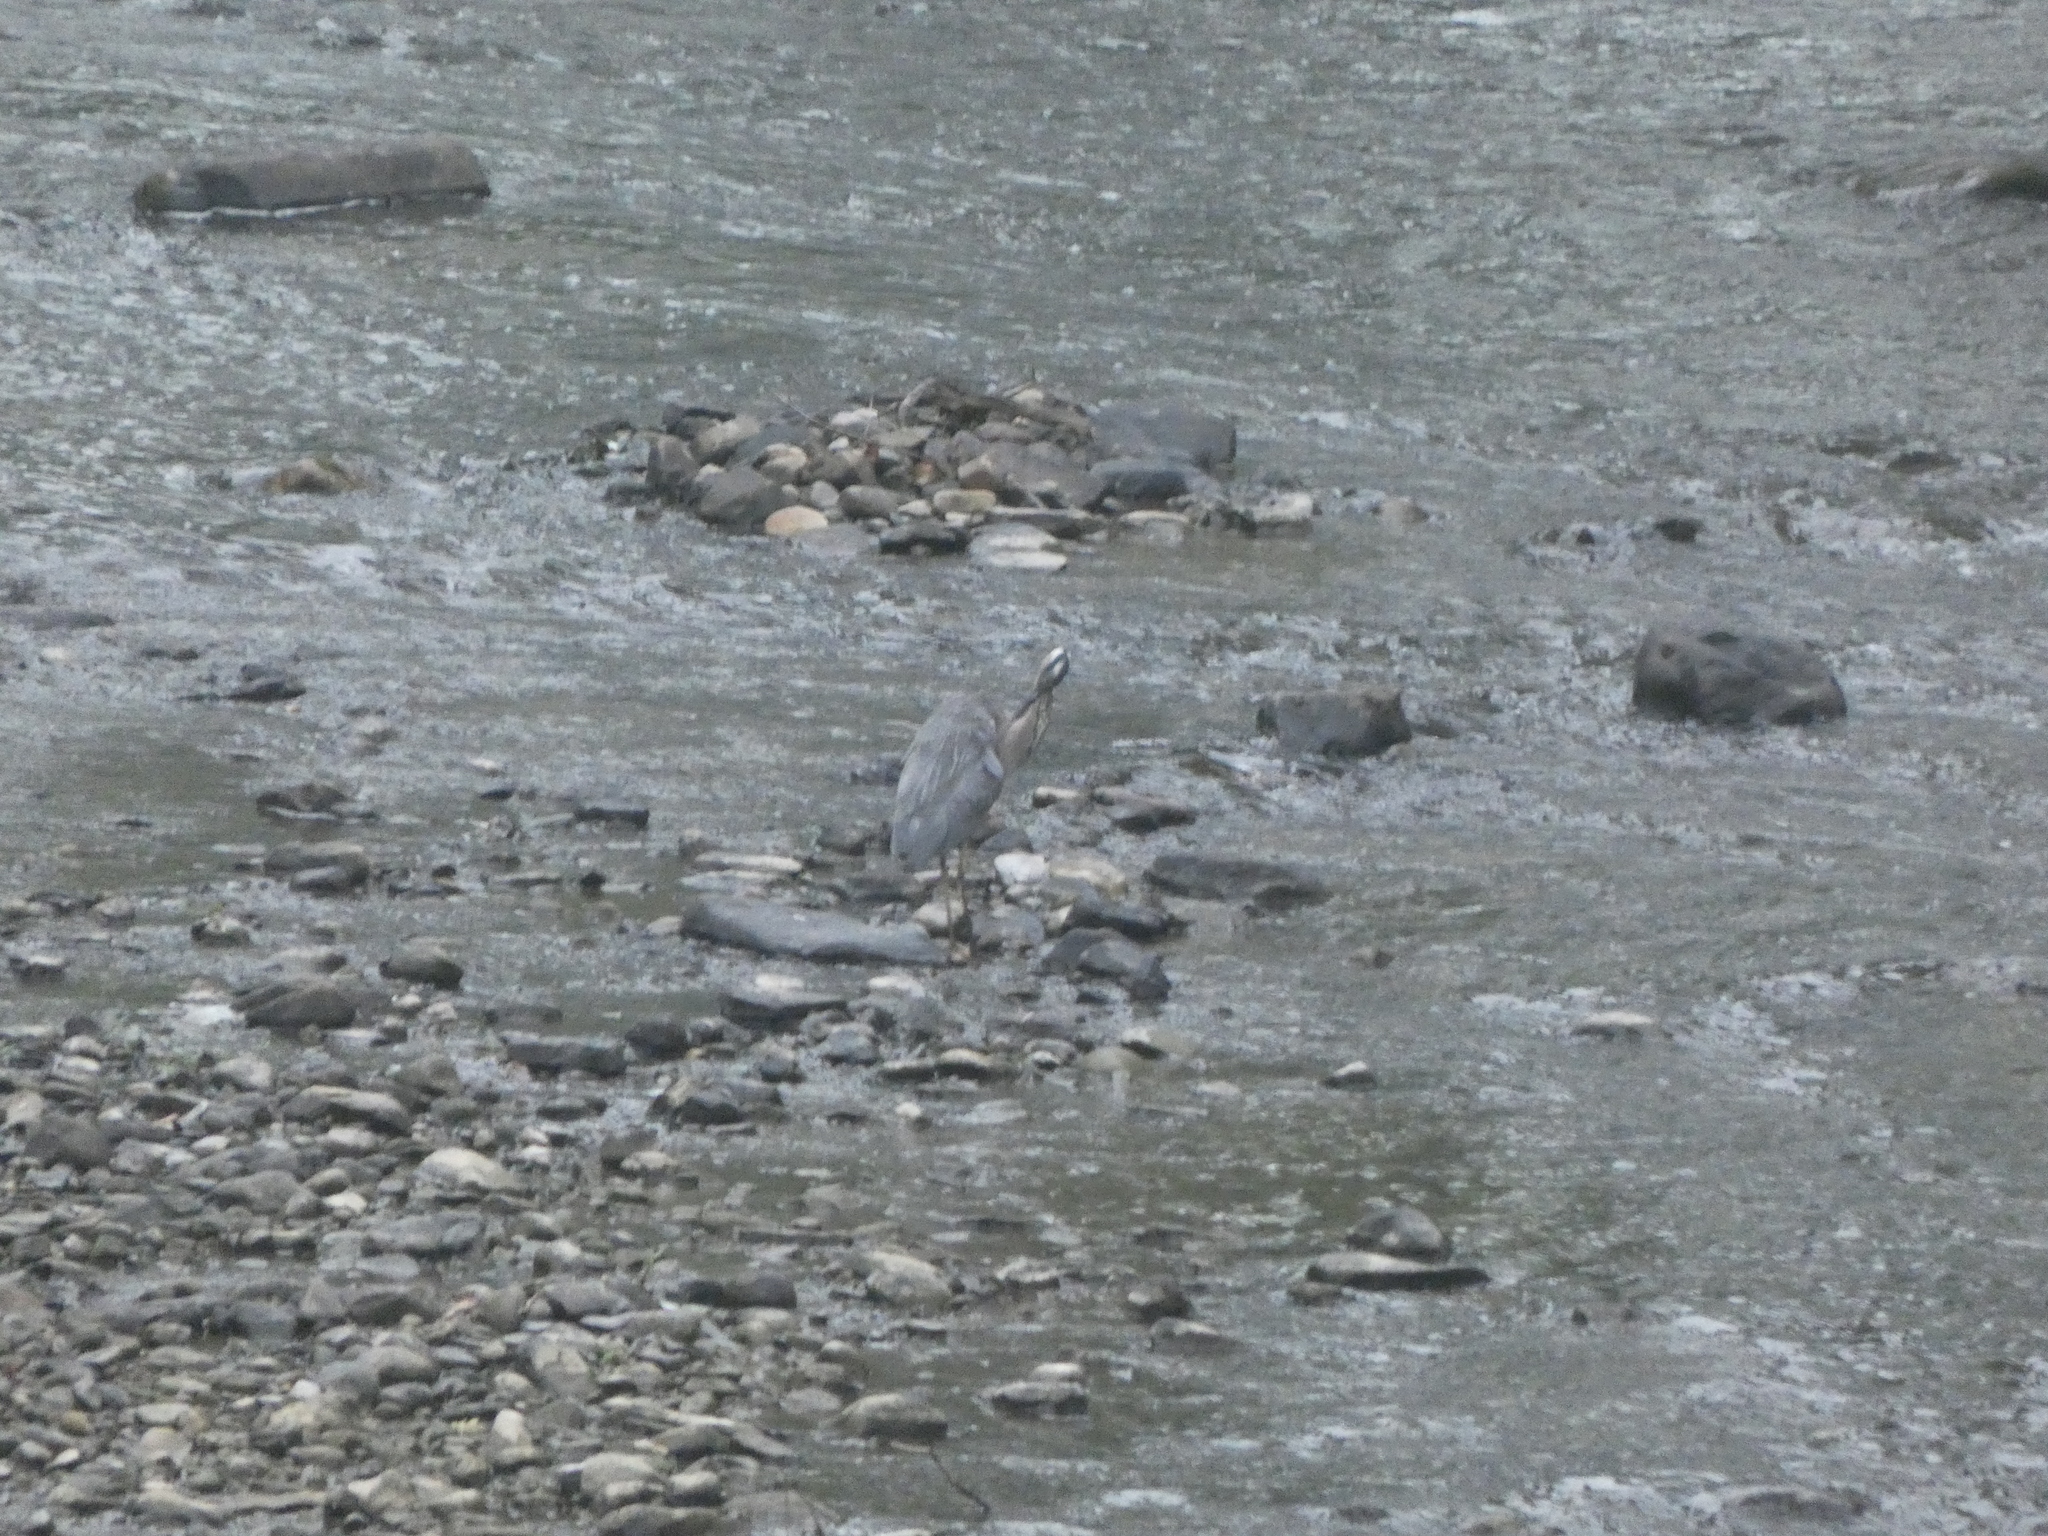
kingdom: Animalia
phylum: Chordata
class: Aves
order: Pelecaniformes
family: Ardeidae
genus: Ardea
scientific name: Ardea herodias
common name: Great blue heron
